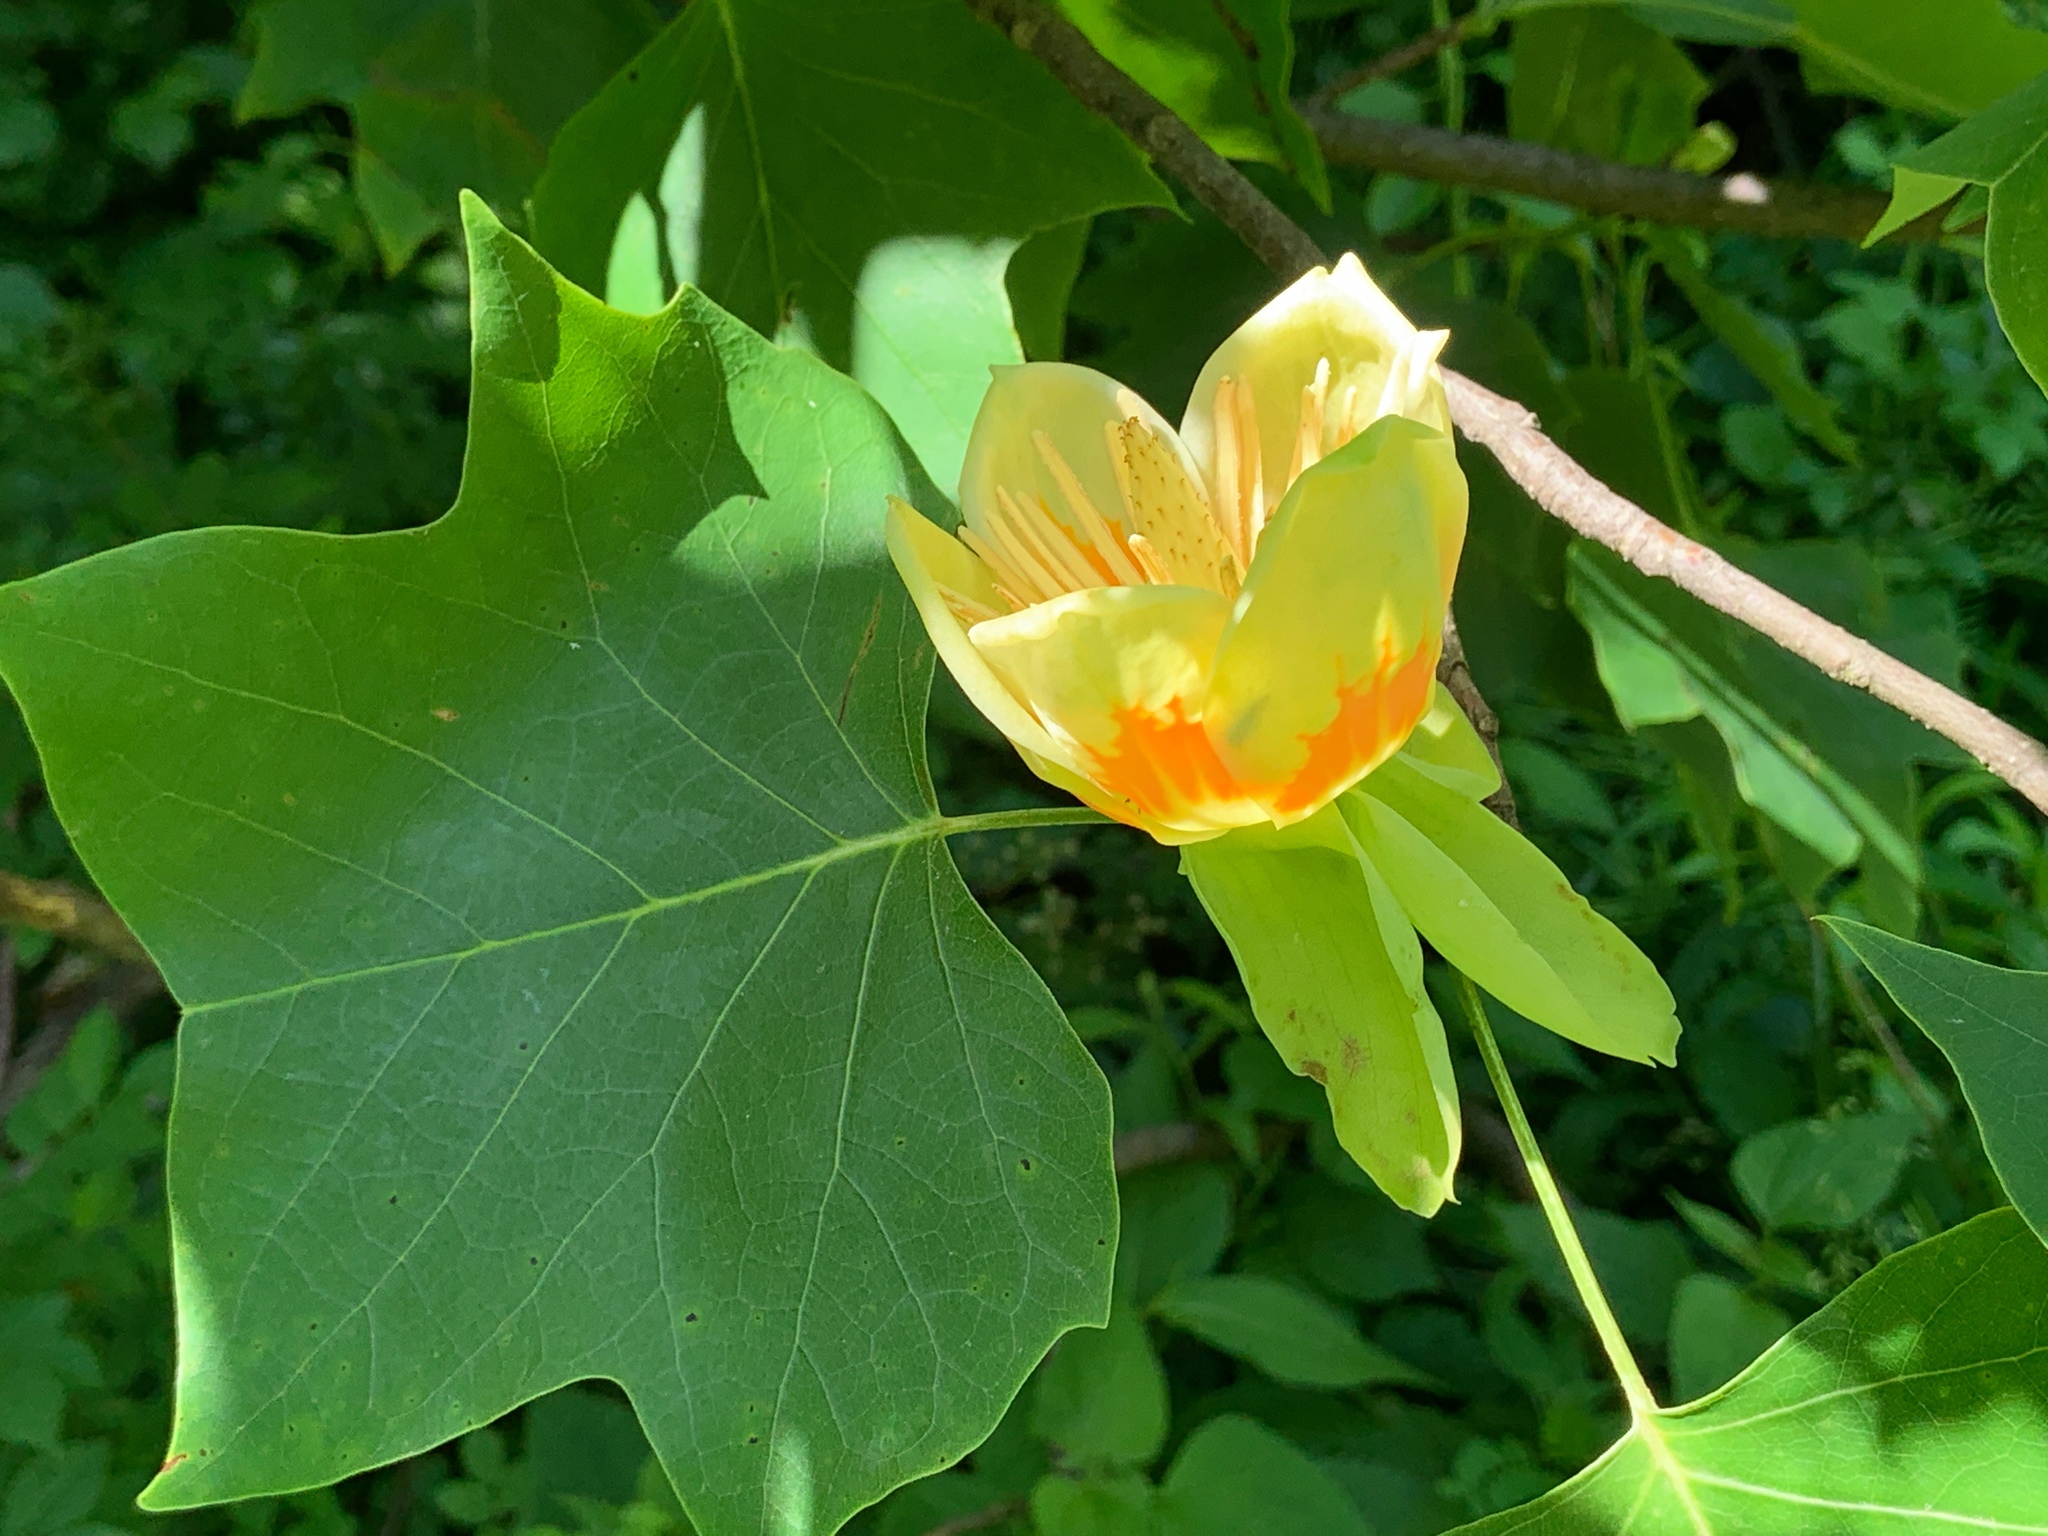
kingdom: Plantae
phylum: Tracheophyta
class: Magnoliopsida
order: Magnoliales
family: Magnoliaceae
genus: Liriodendron
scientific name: Liriodendron tulipifera
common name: Tulip tree
